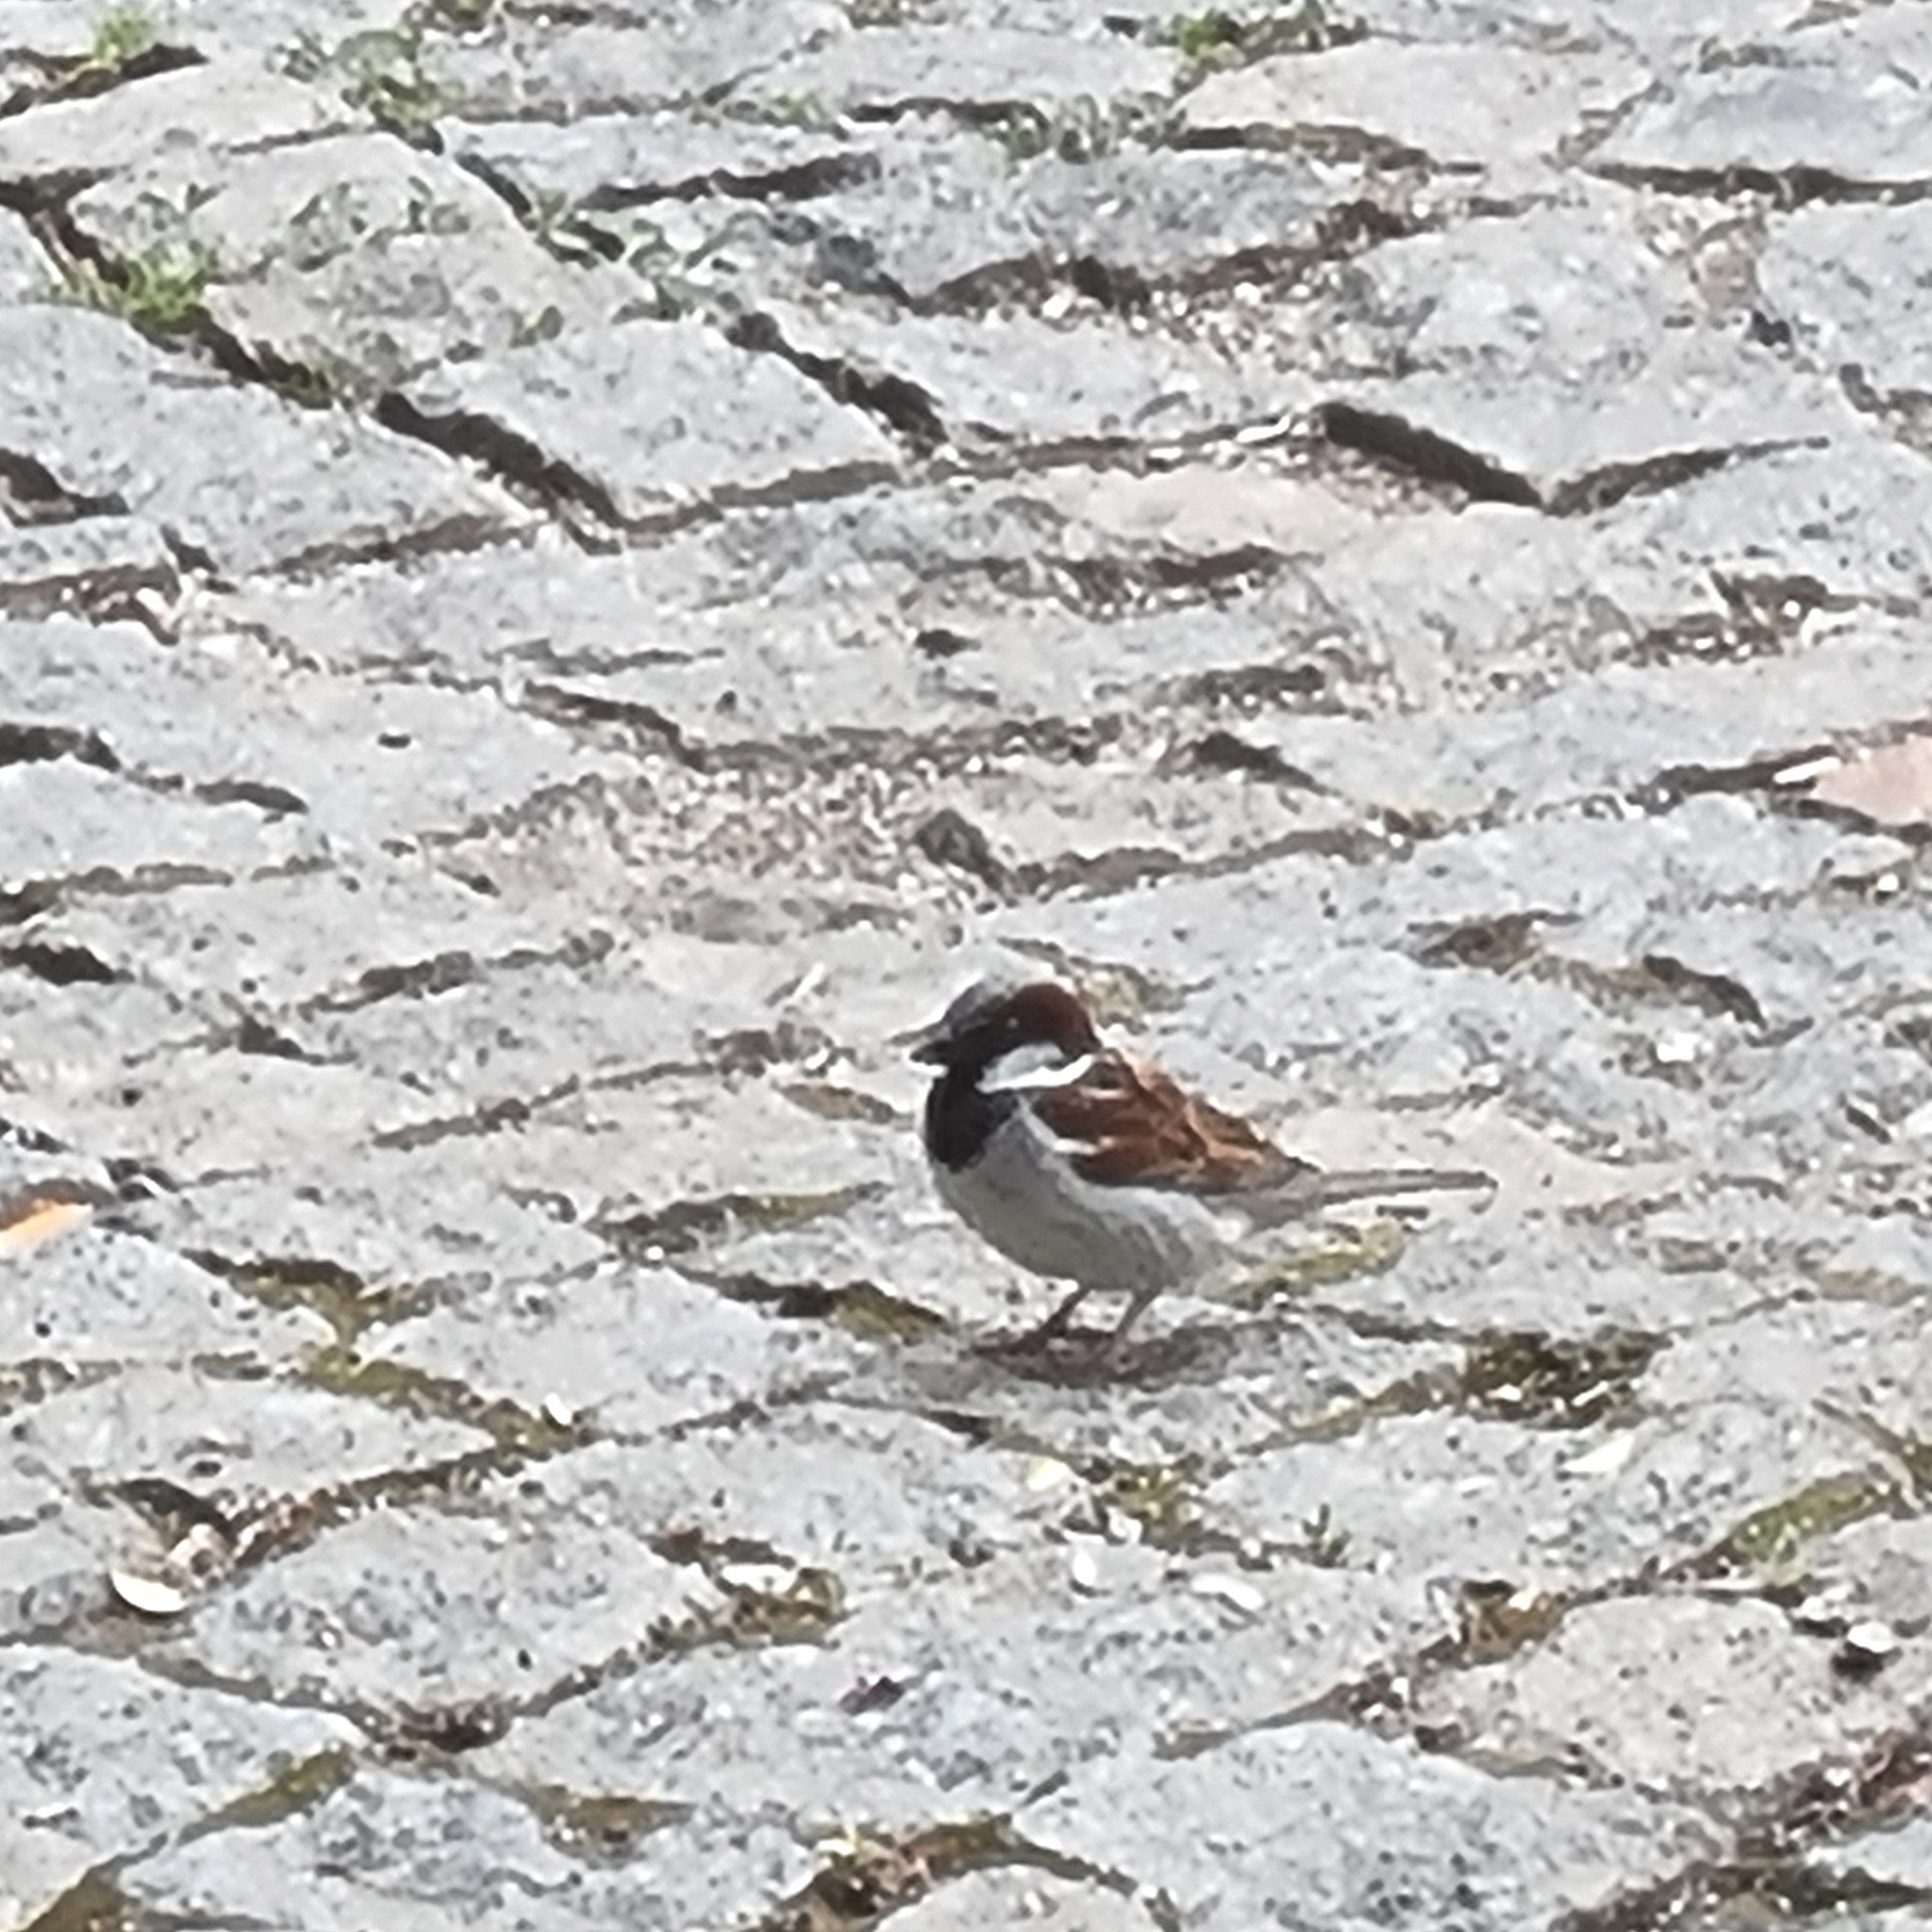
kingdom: Animalia
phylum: Chordata
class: Aves
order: Passeriformes
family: Passeridae
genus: Passer
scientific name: Passer domesticus
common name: House sparrow
